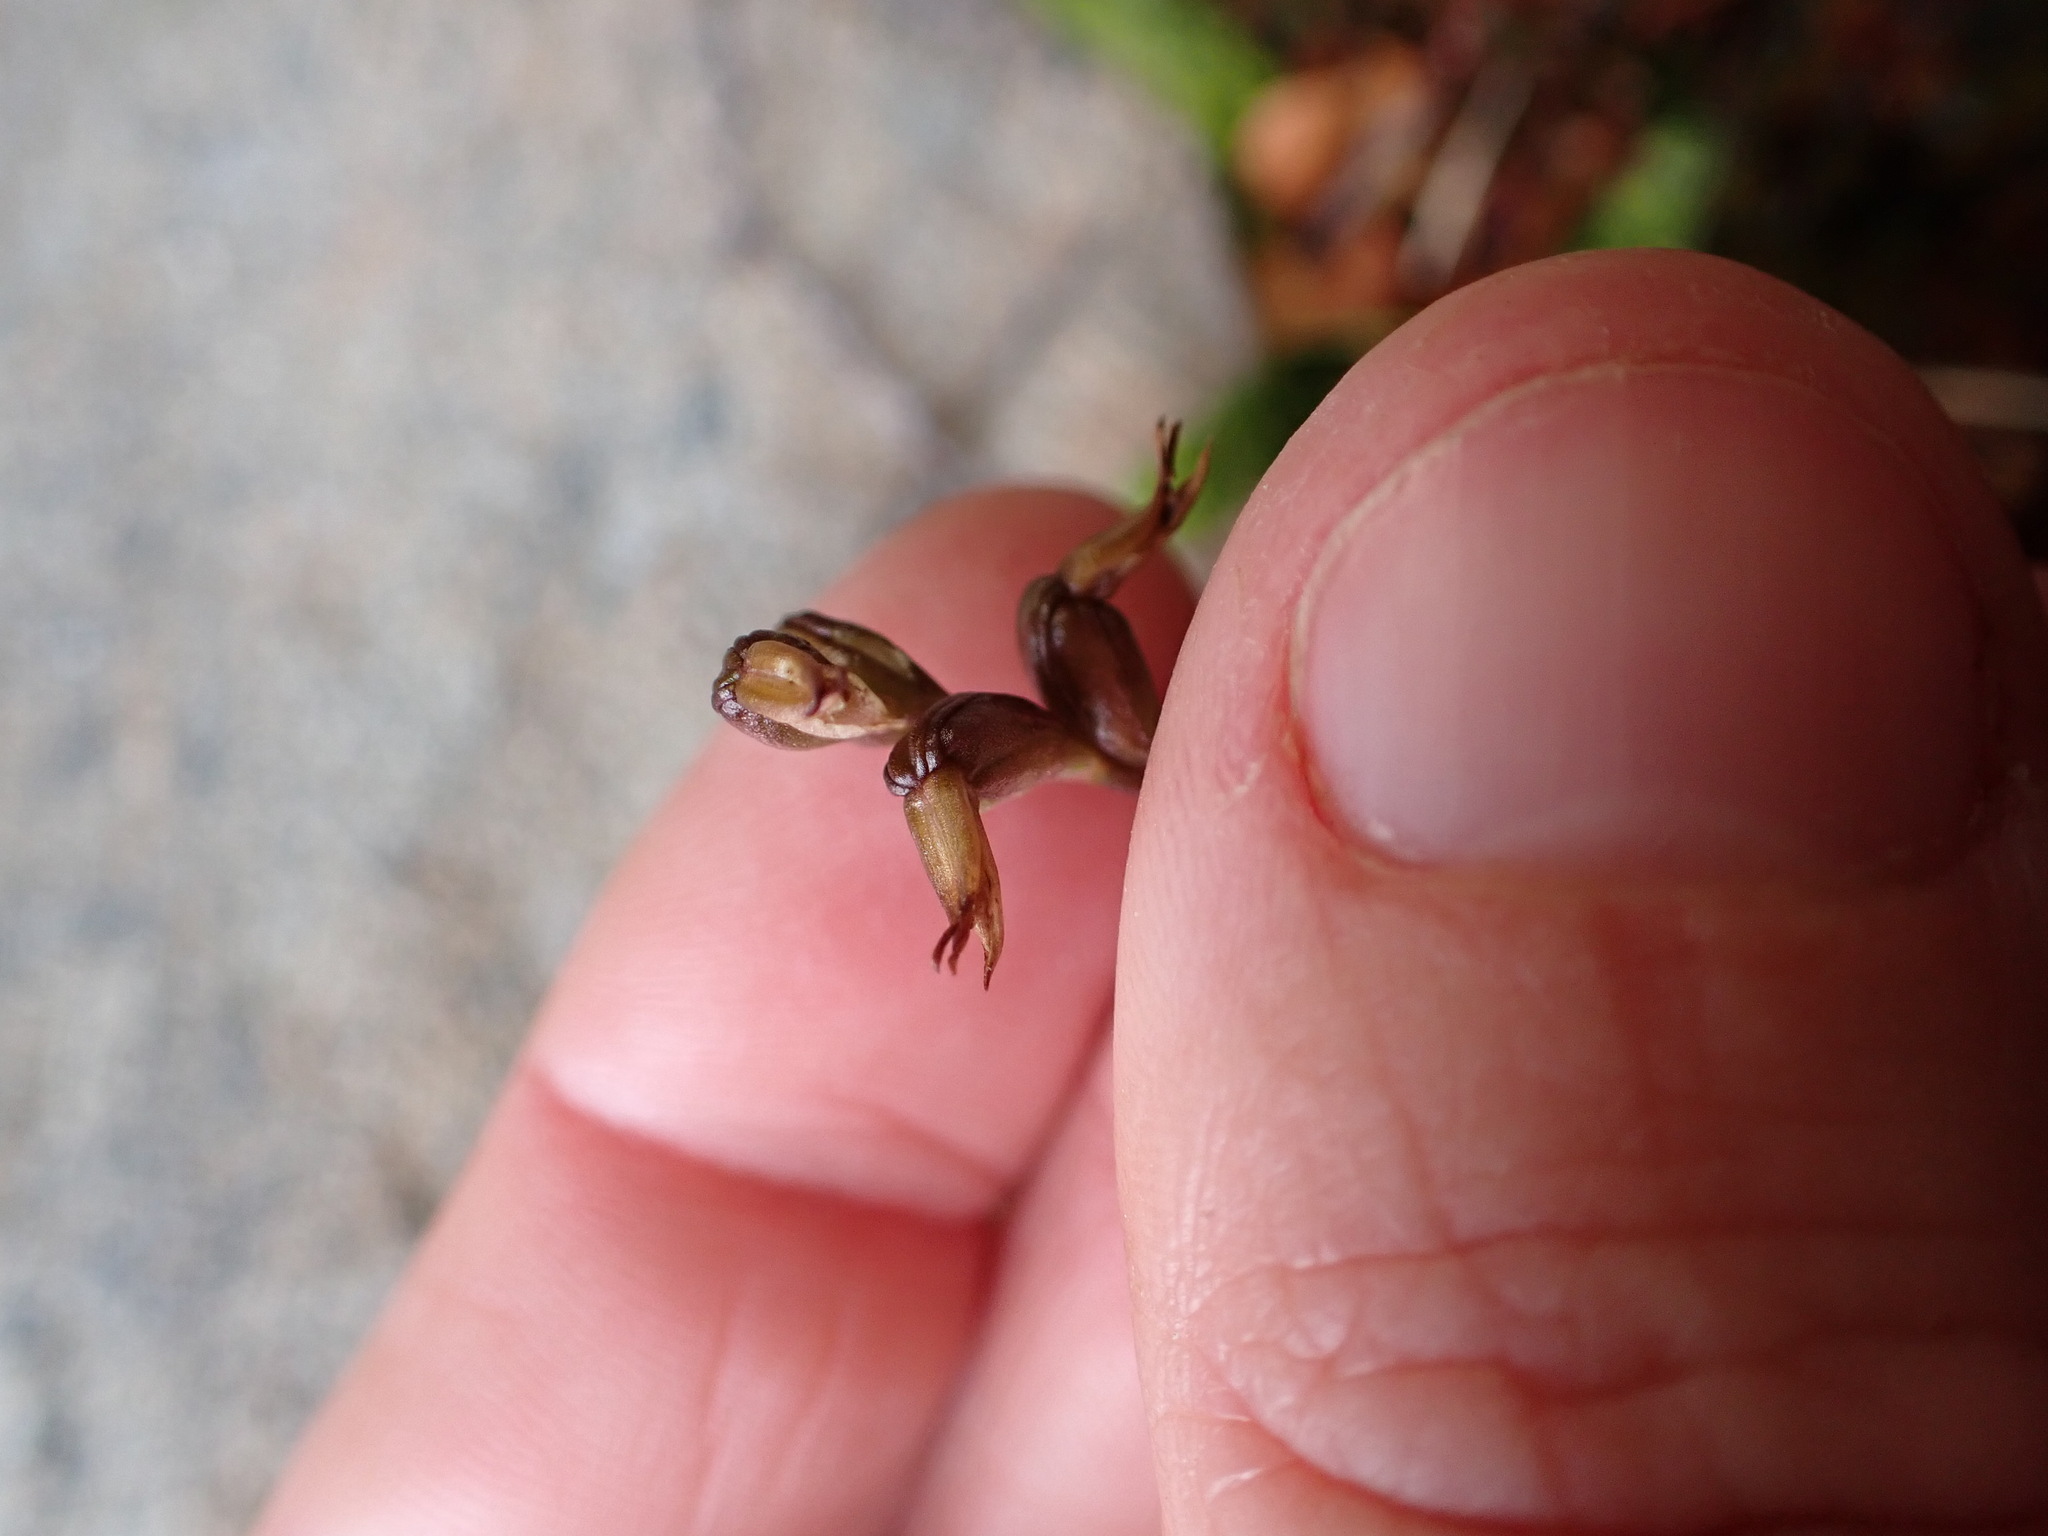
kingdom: Plantae
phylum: Tracheophyta
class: Liliopsida
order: Asparagales
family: Orchidaceae
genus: Prasophyllum
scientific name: Prasophyllum colensoi
